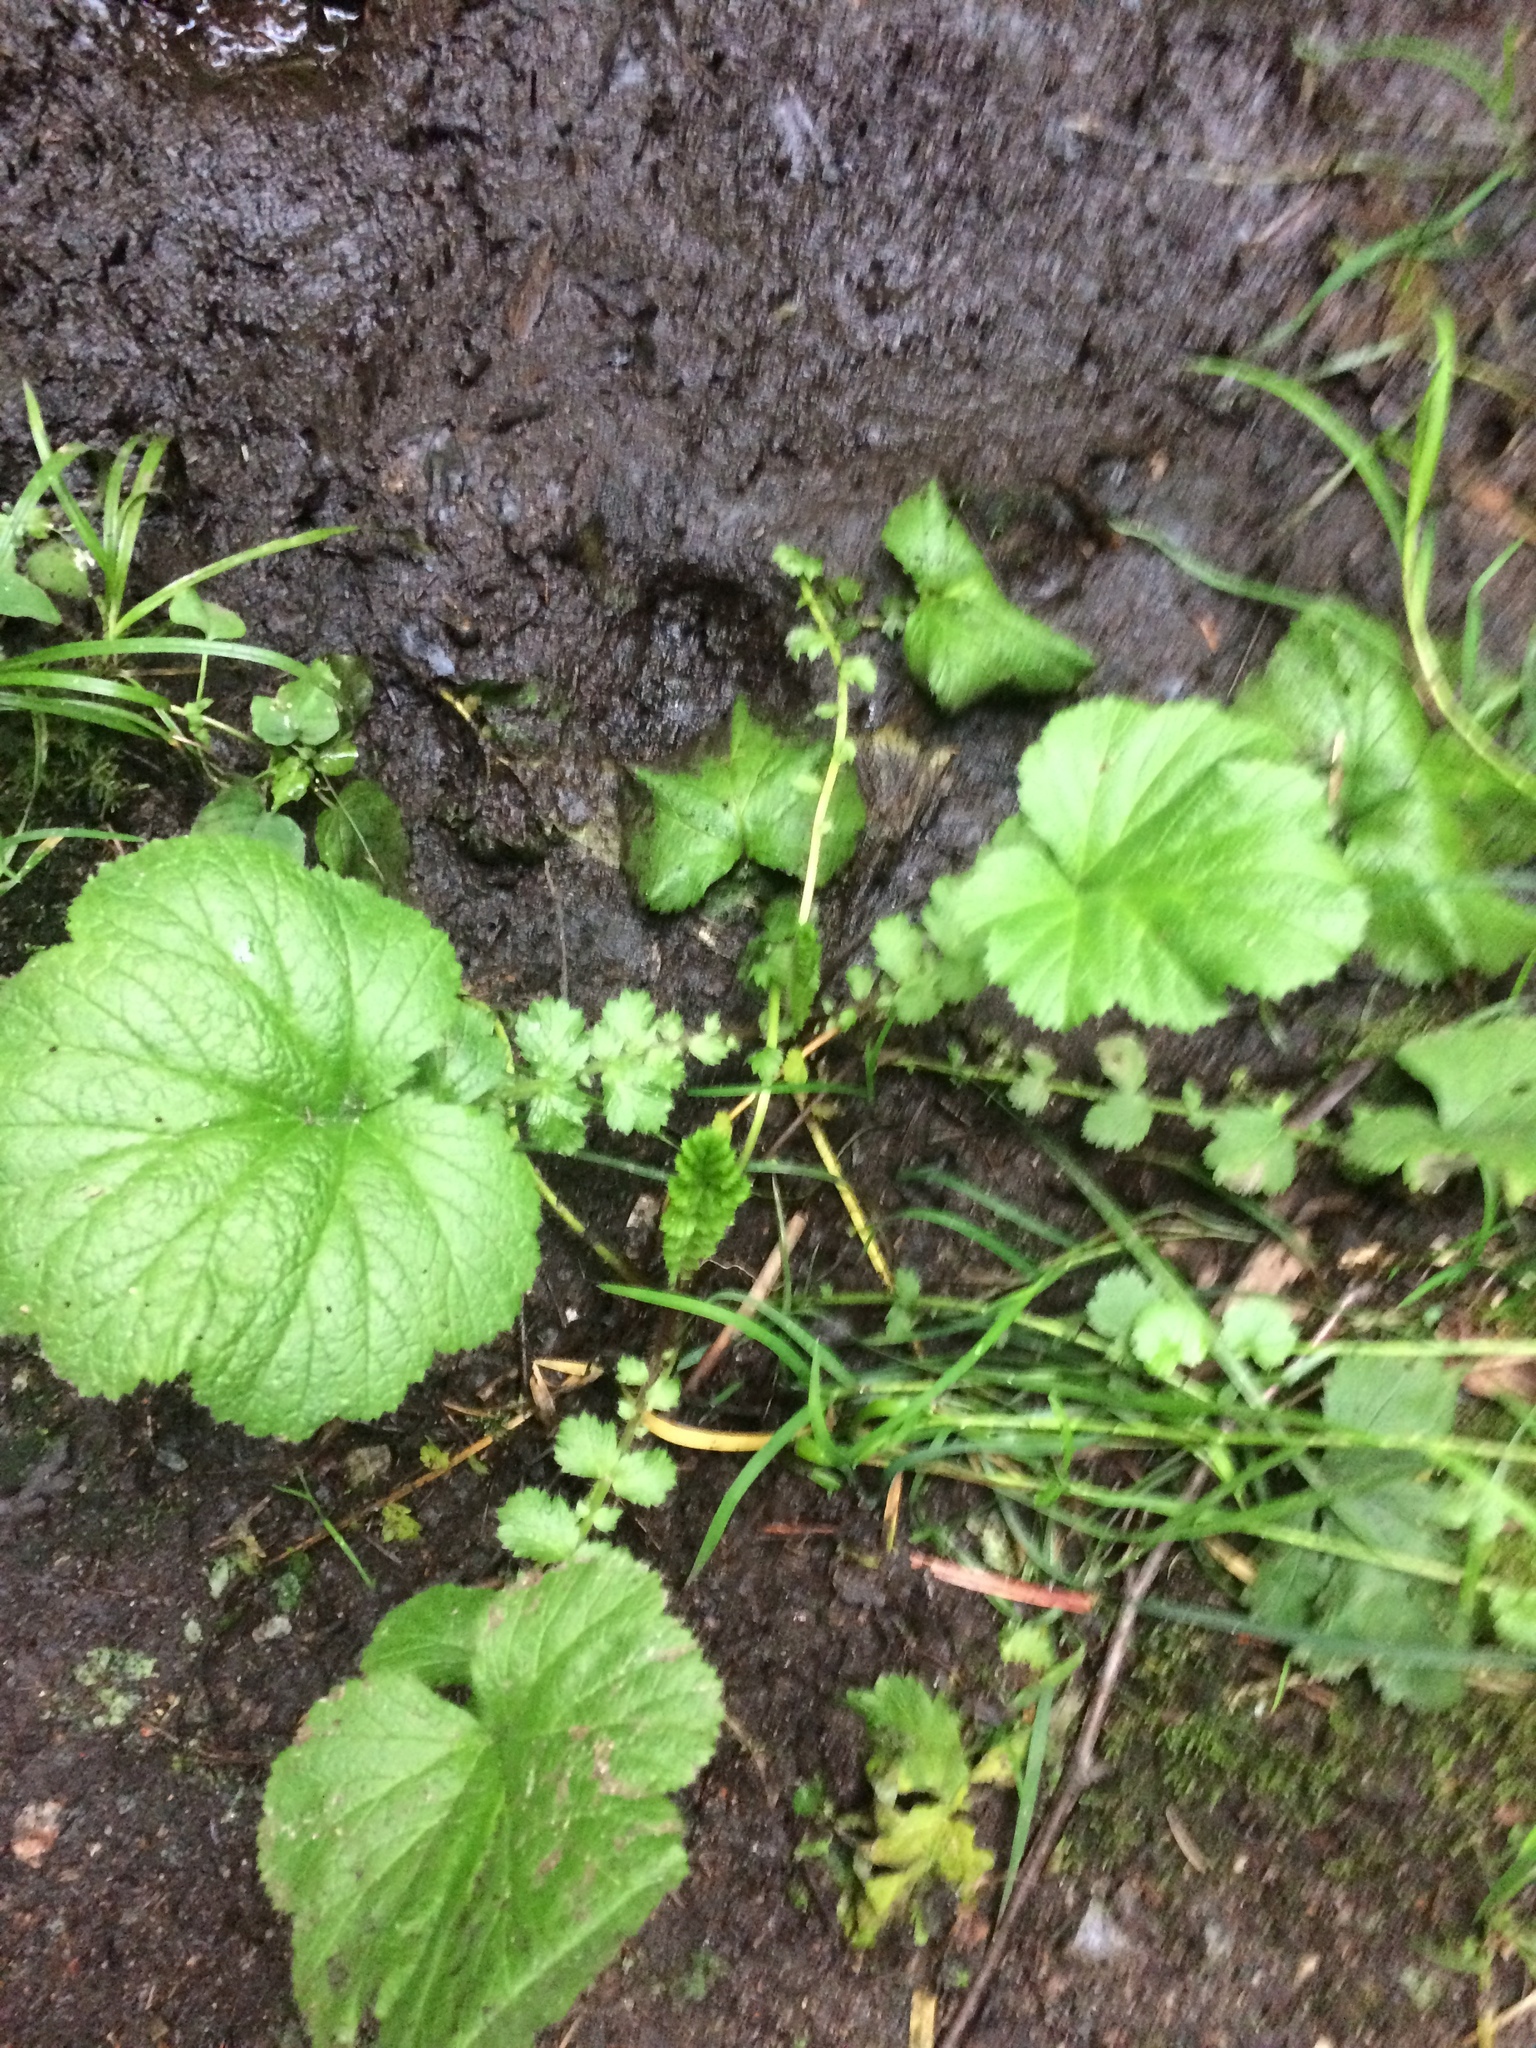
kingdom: Plantae
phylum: Tracheophyta
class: Magnoliopsida
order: Rosales
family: Rosaceae
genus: Geum
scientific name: Geum macrophyllum
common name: Large-leaved avens
